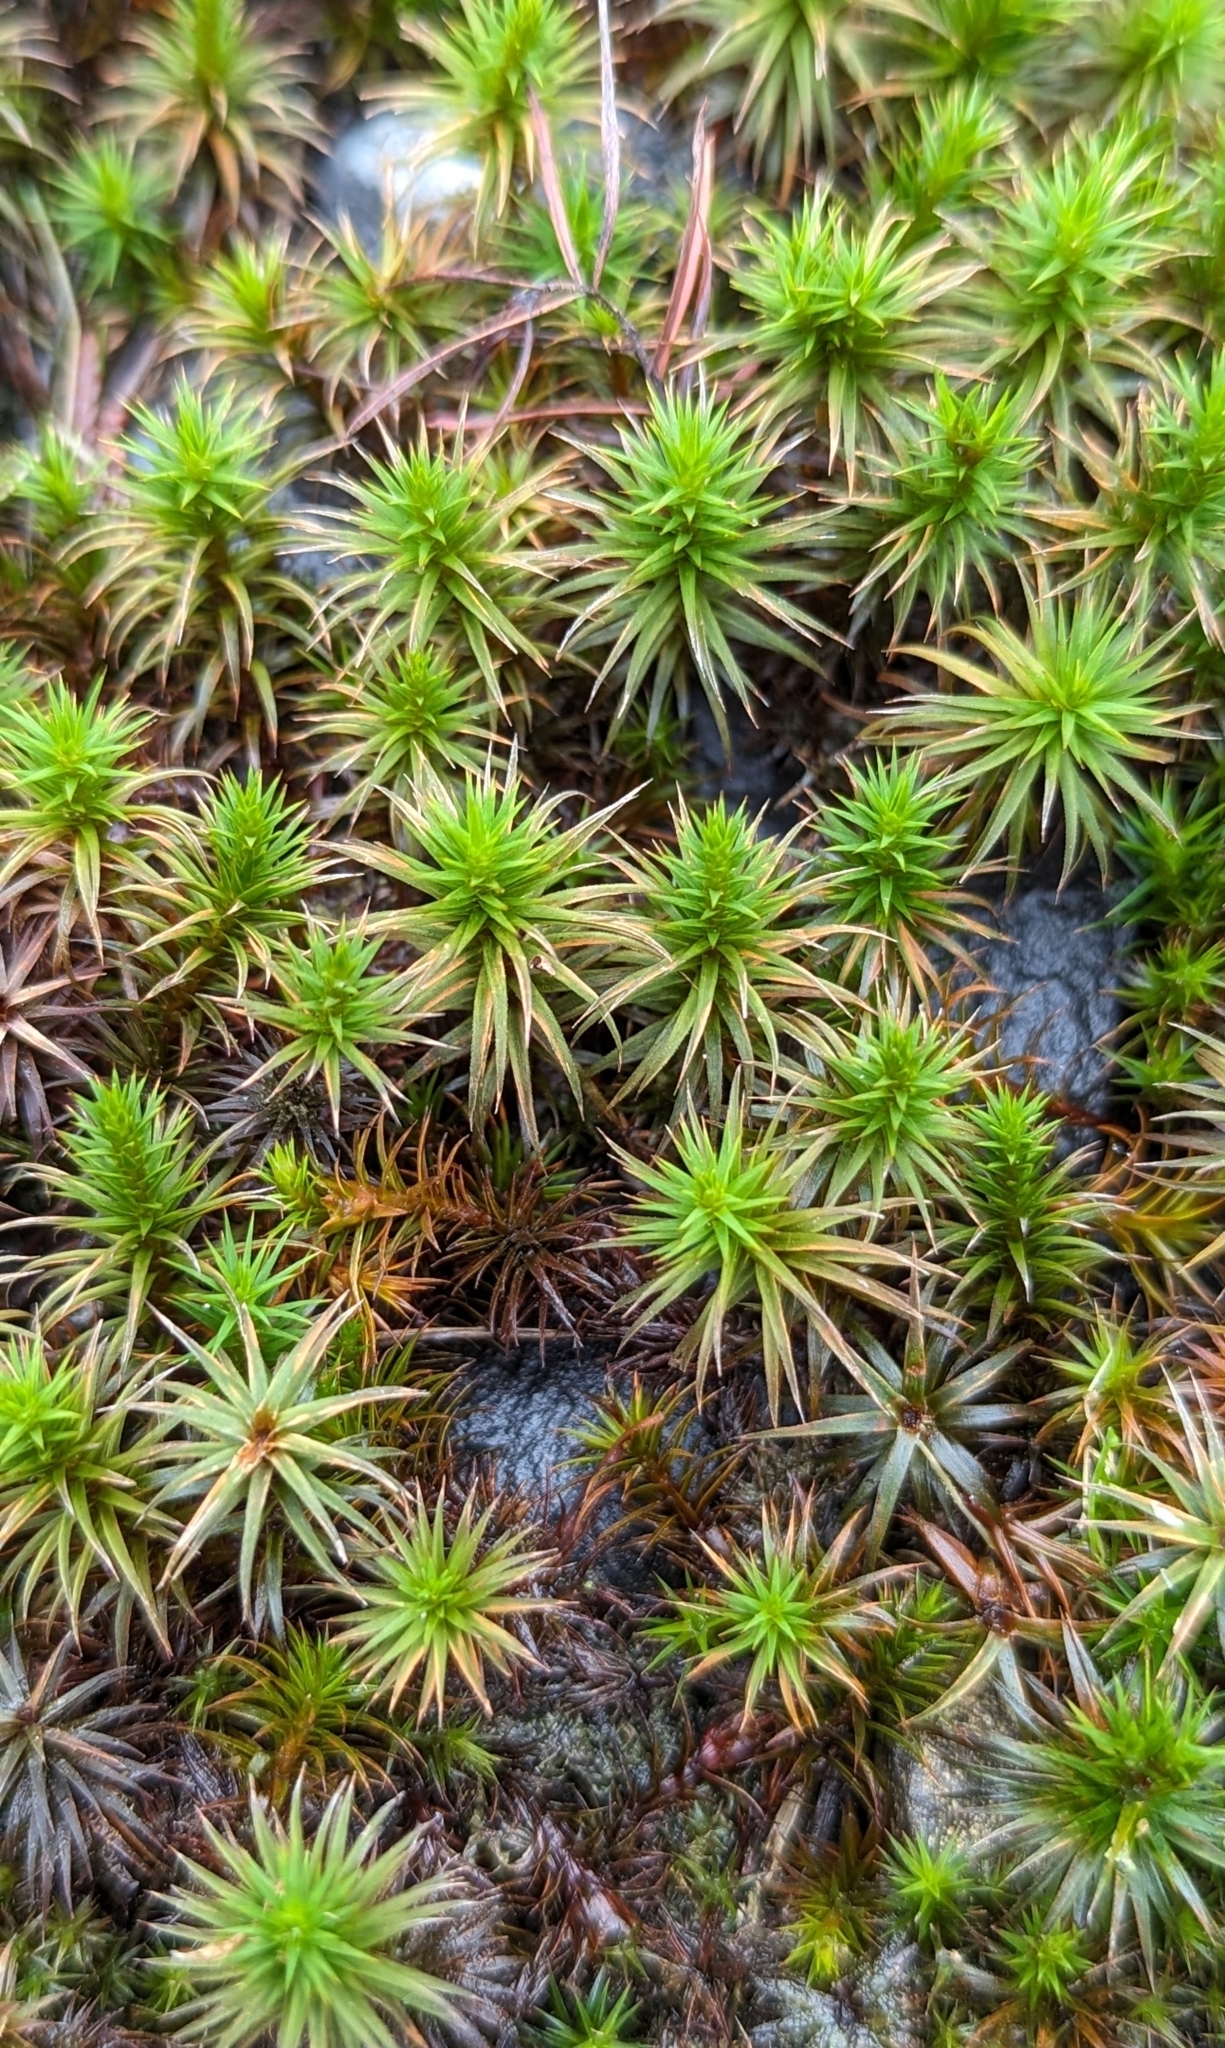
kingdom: Plantae
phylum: Bryophyta
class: Polytrichopsida
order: Polytrichales
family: Polytrichaceae
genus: Polytrichum
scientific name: Polytrichum juniperinum
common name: Juniper haircap moss
